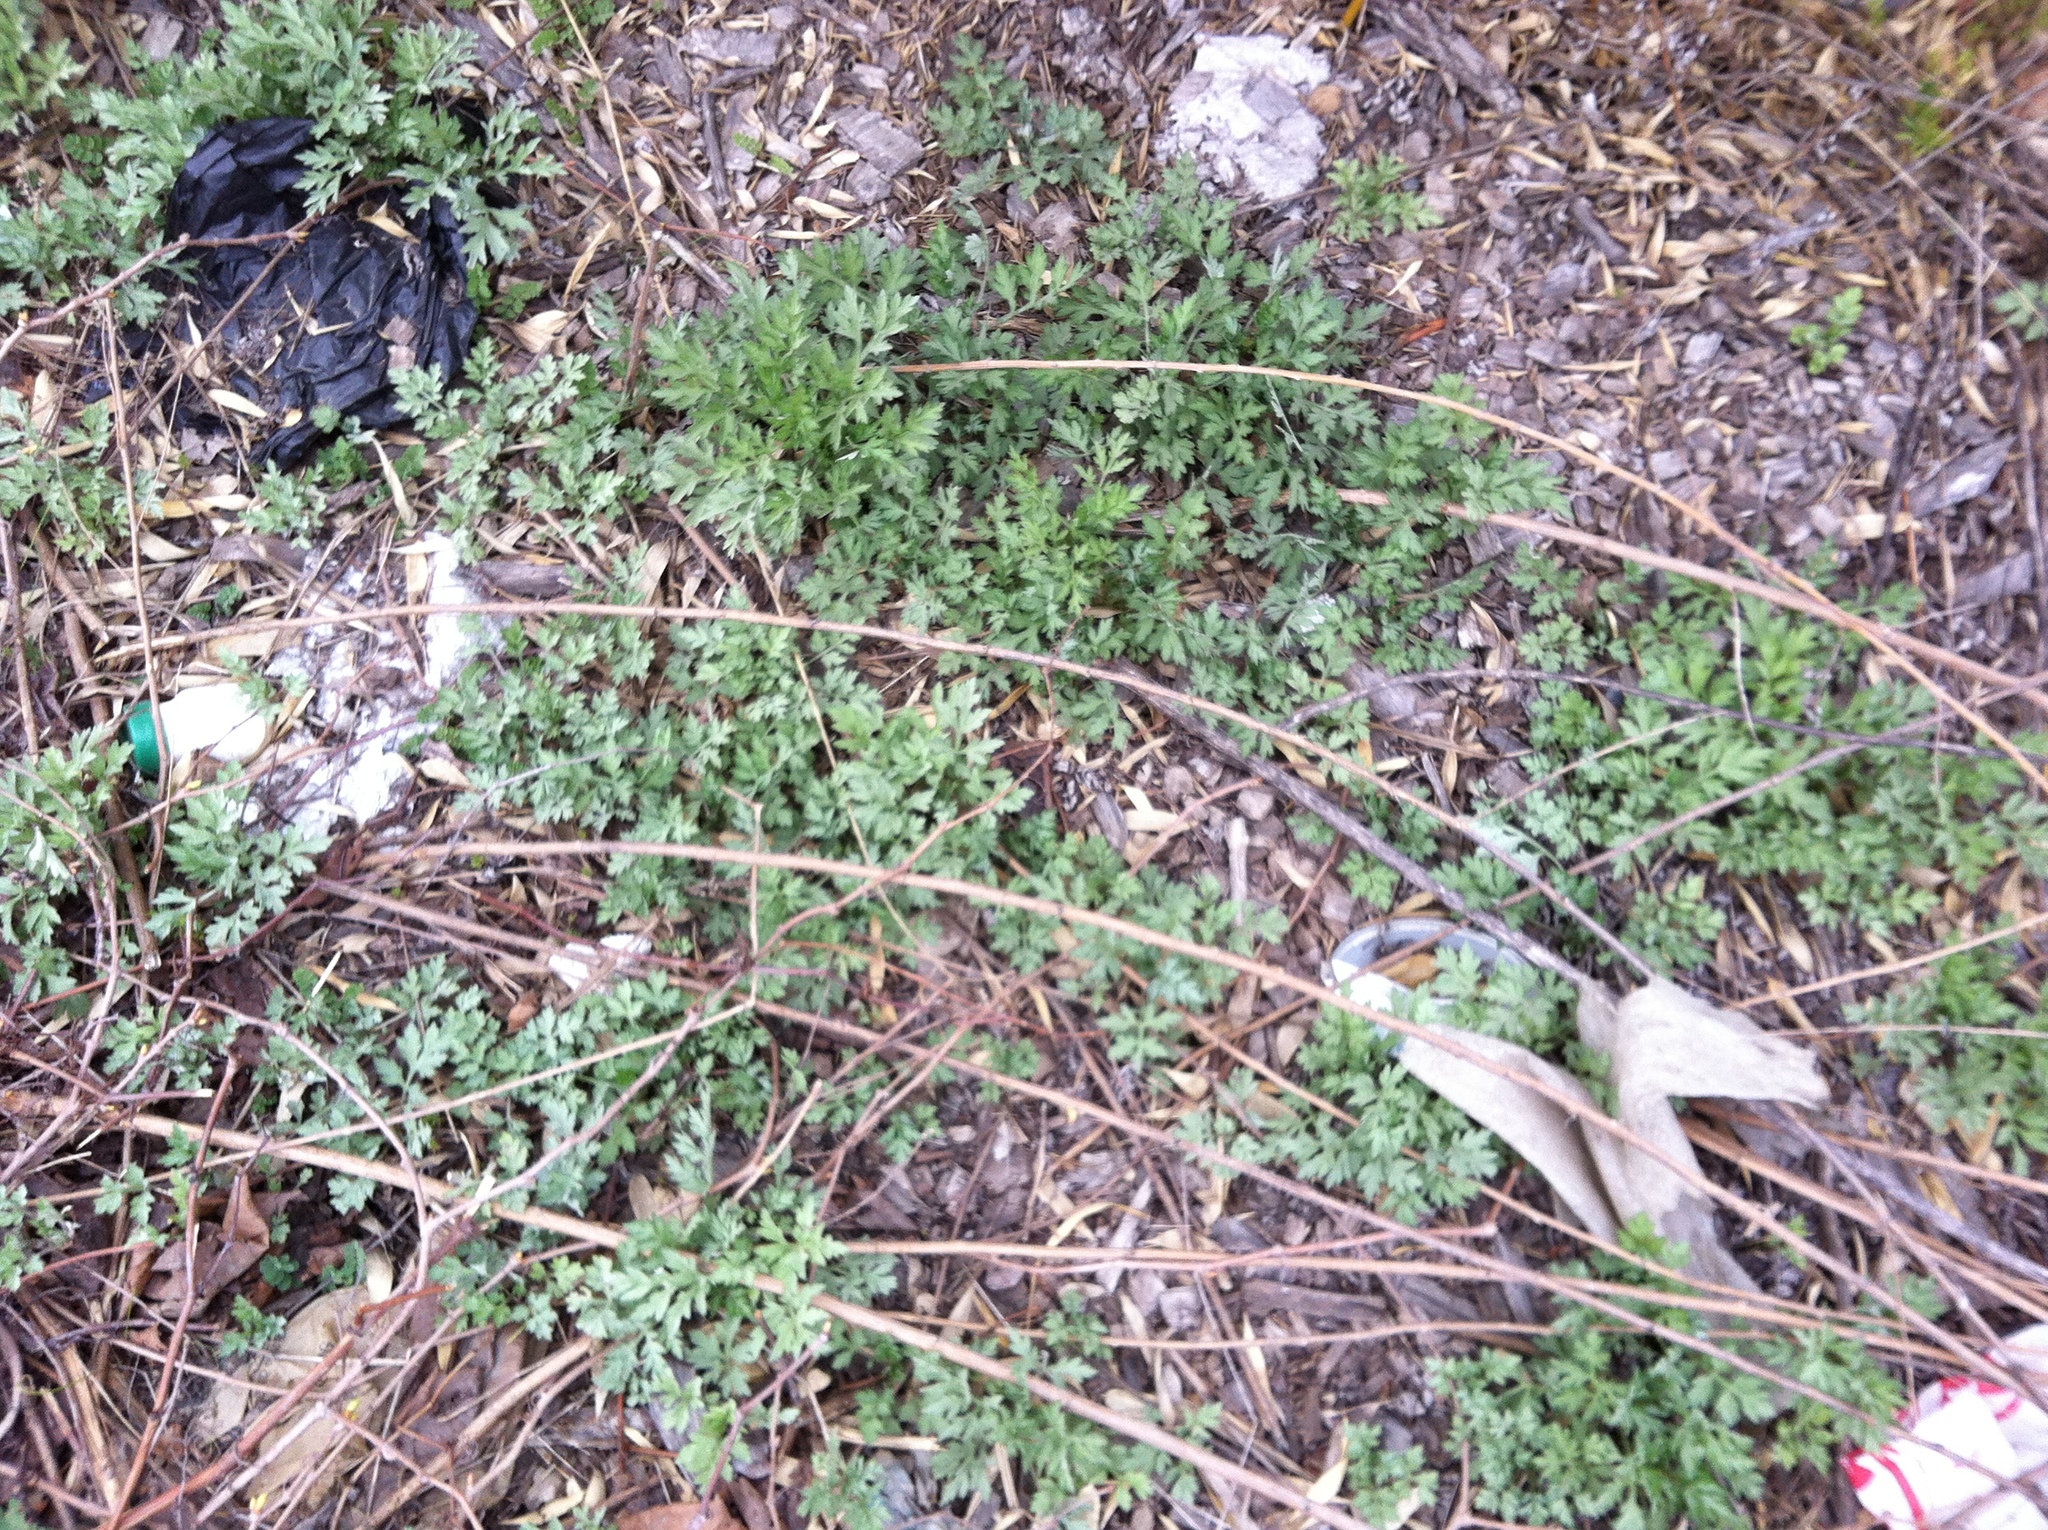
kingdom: Plantae
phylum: Tracheophyta
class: Magnoliopsida
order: Asterales
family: Asteraceae
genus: Artemisia
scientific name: Artemisia vulgaris
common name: Mugwort
